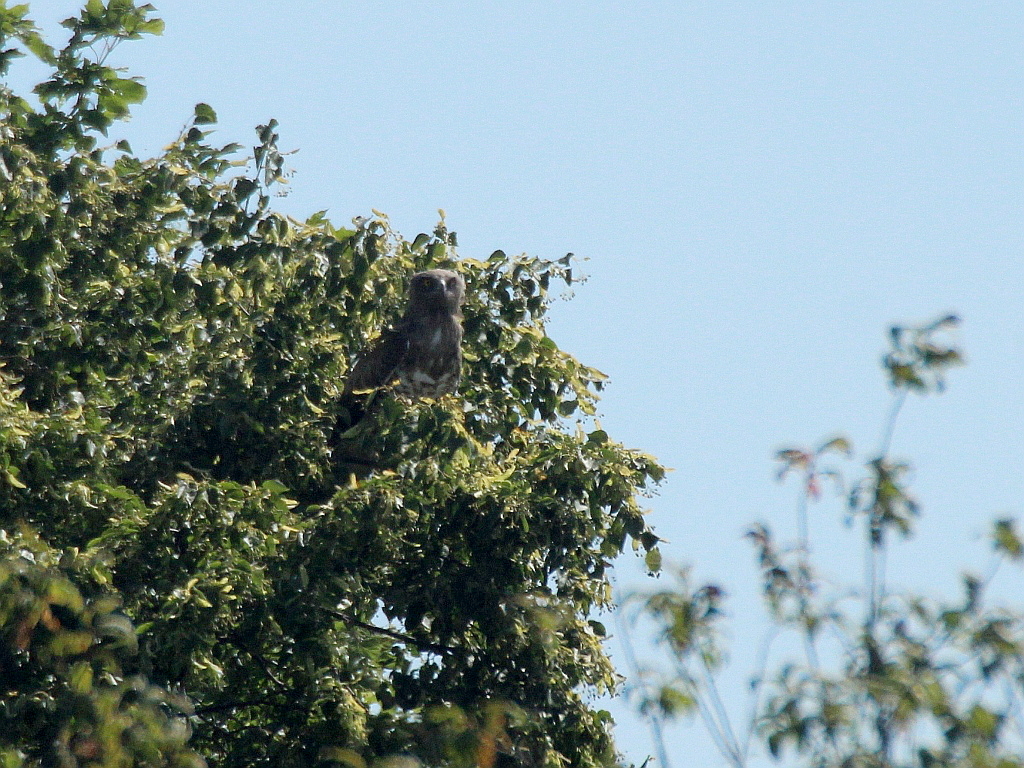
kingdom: Animalia
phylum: Chordata
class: Aves
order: Accipitriformes
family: Accipitridae
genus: Circaetus
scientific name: Circaetus gallicus
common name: Short-toed snake eagle
